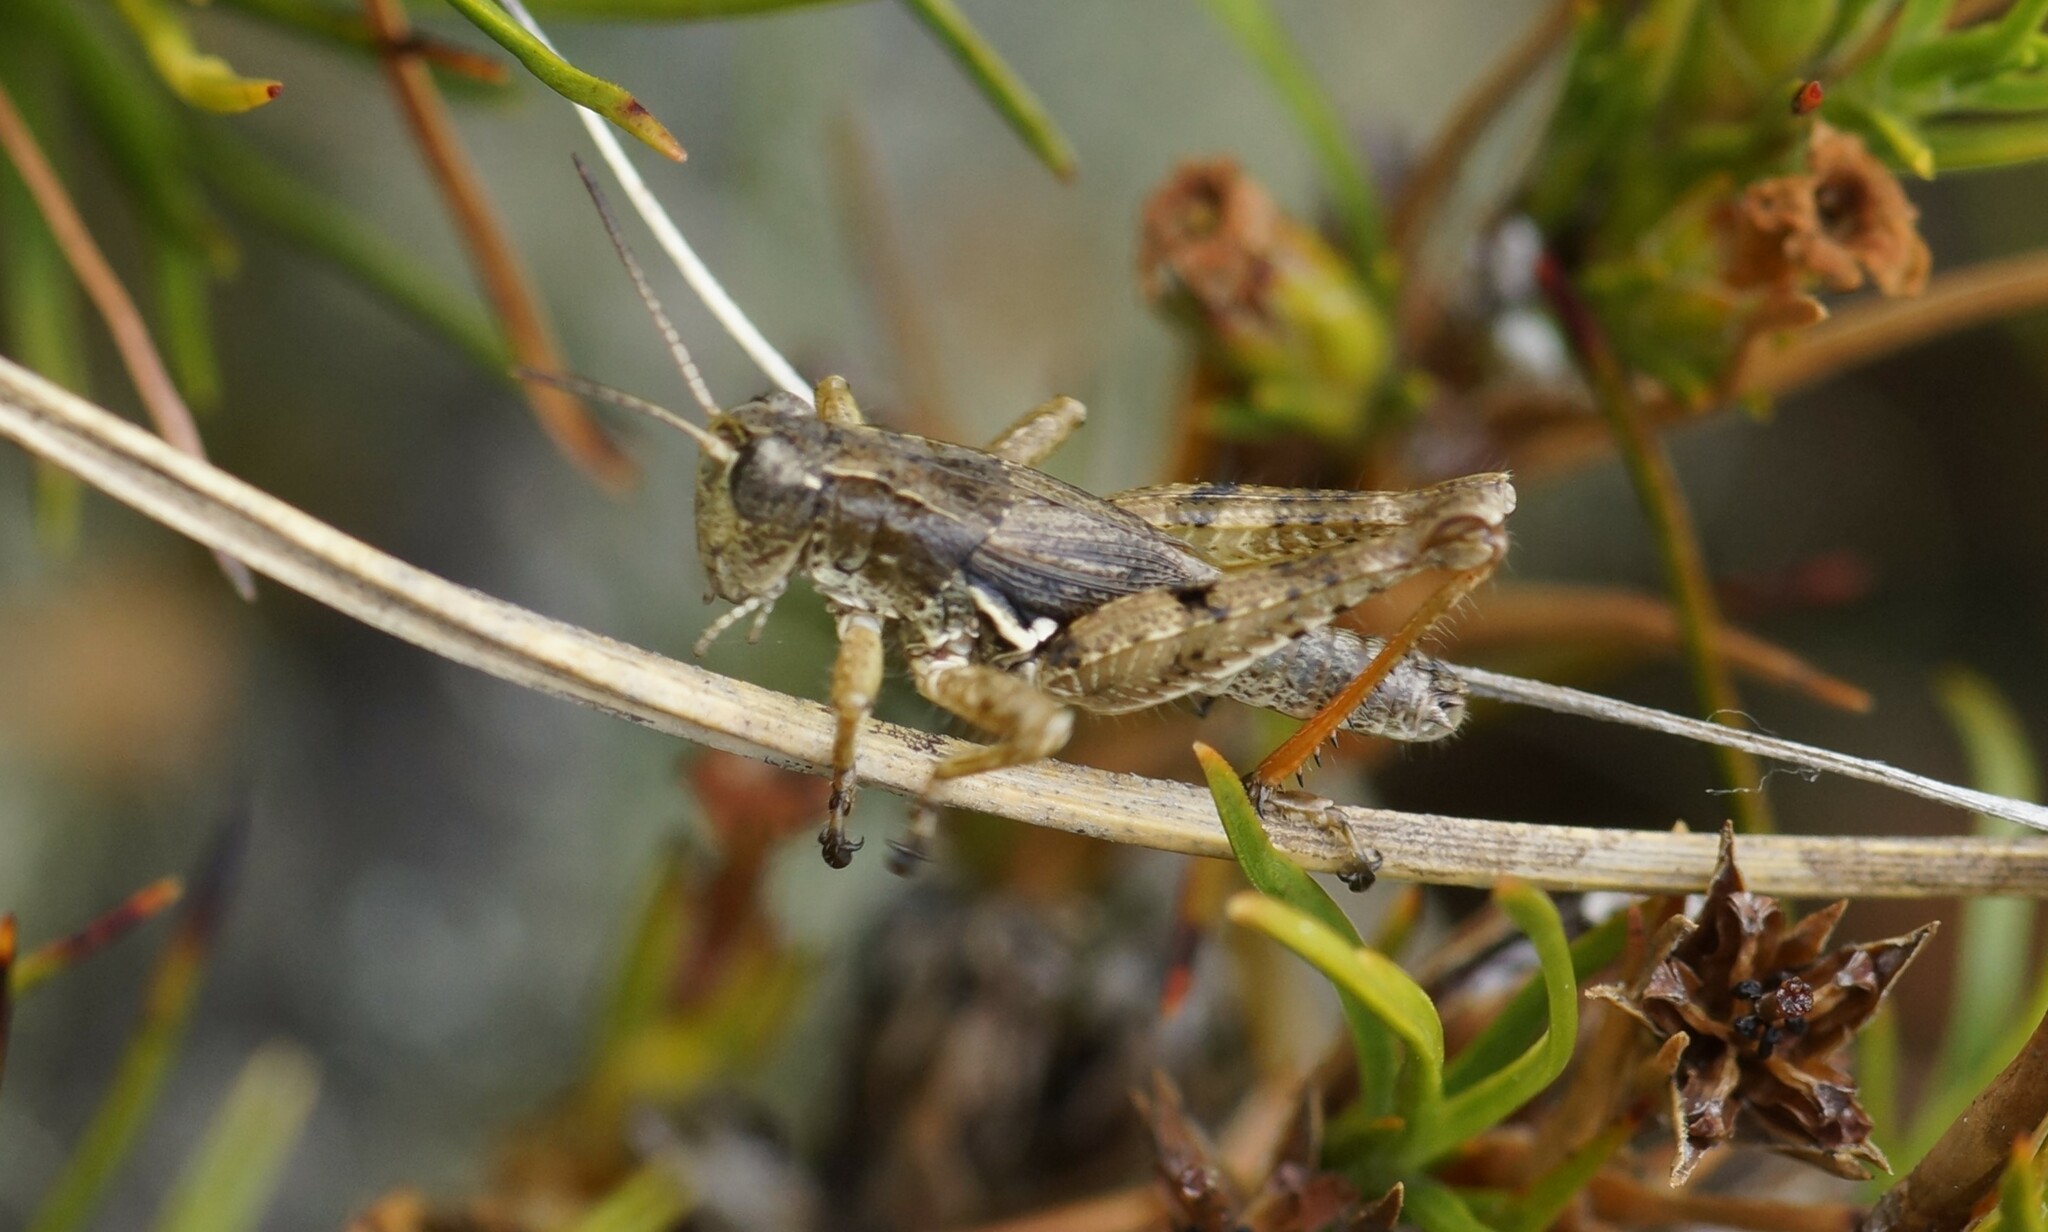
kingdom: Animalia
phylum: Arthropoda
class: Insecta
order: Orthoptera
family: Acrididae
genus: Phaulacridium
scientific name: Phaulacridium marginale
